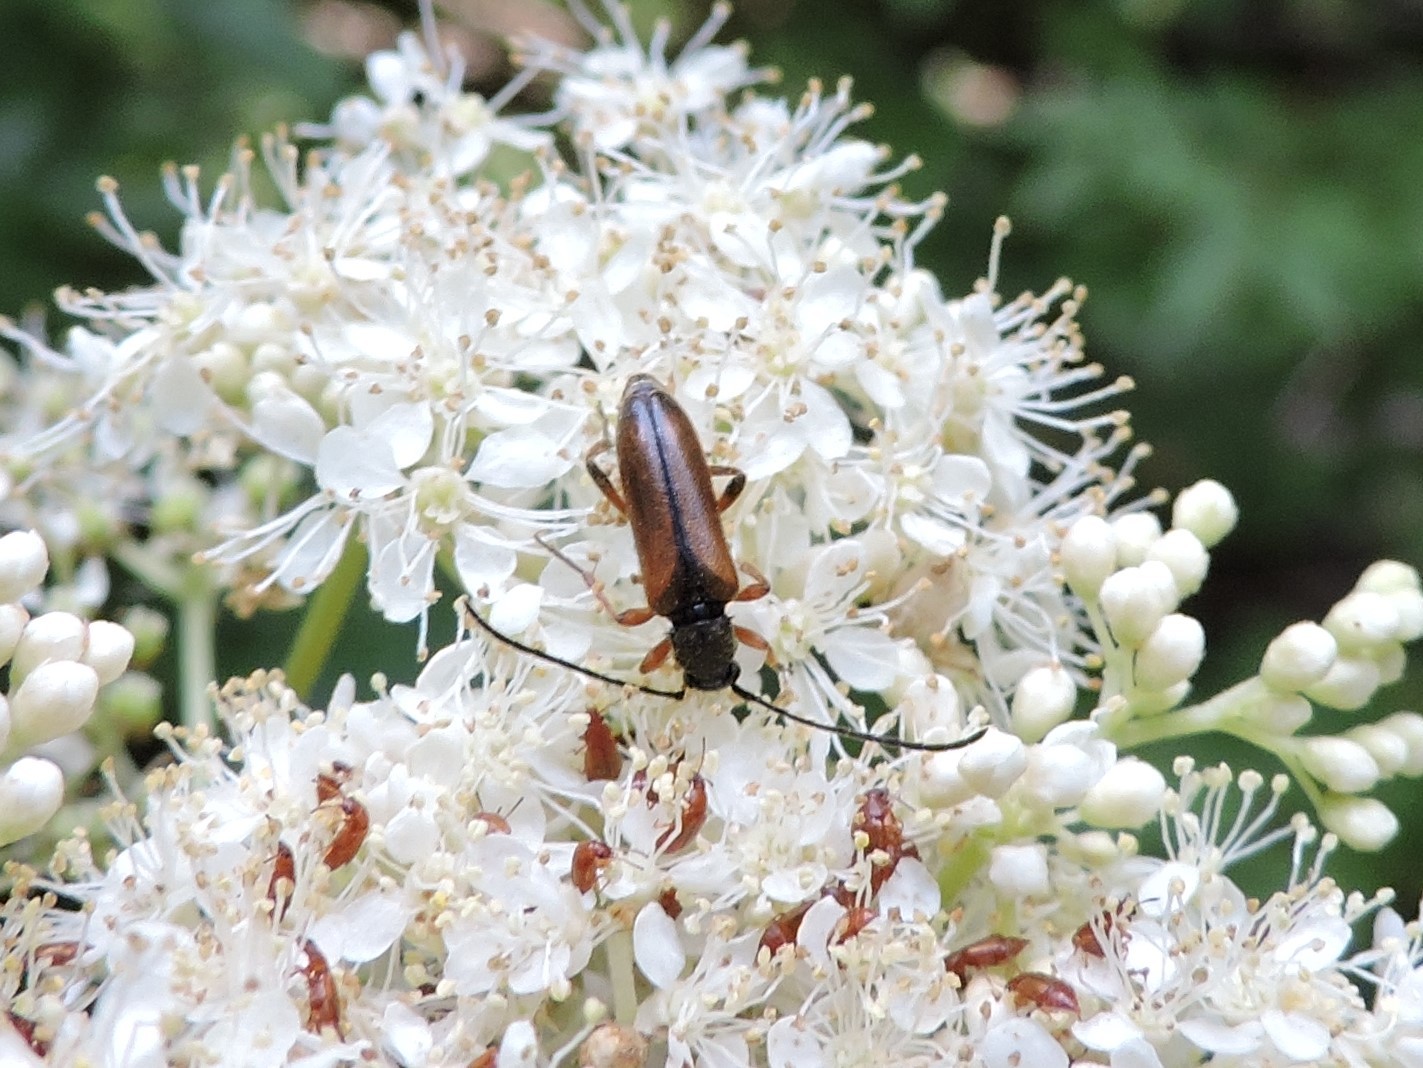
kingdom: Animalia
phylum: Arthropoda
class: Insecta
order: Coleoptera
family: Cerambycidae
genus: Alosterna
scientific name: Alosterna tabacicolor
